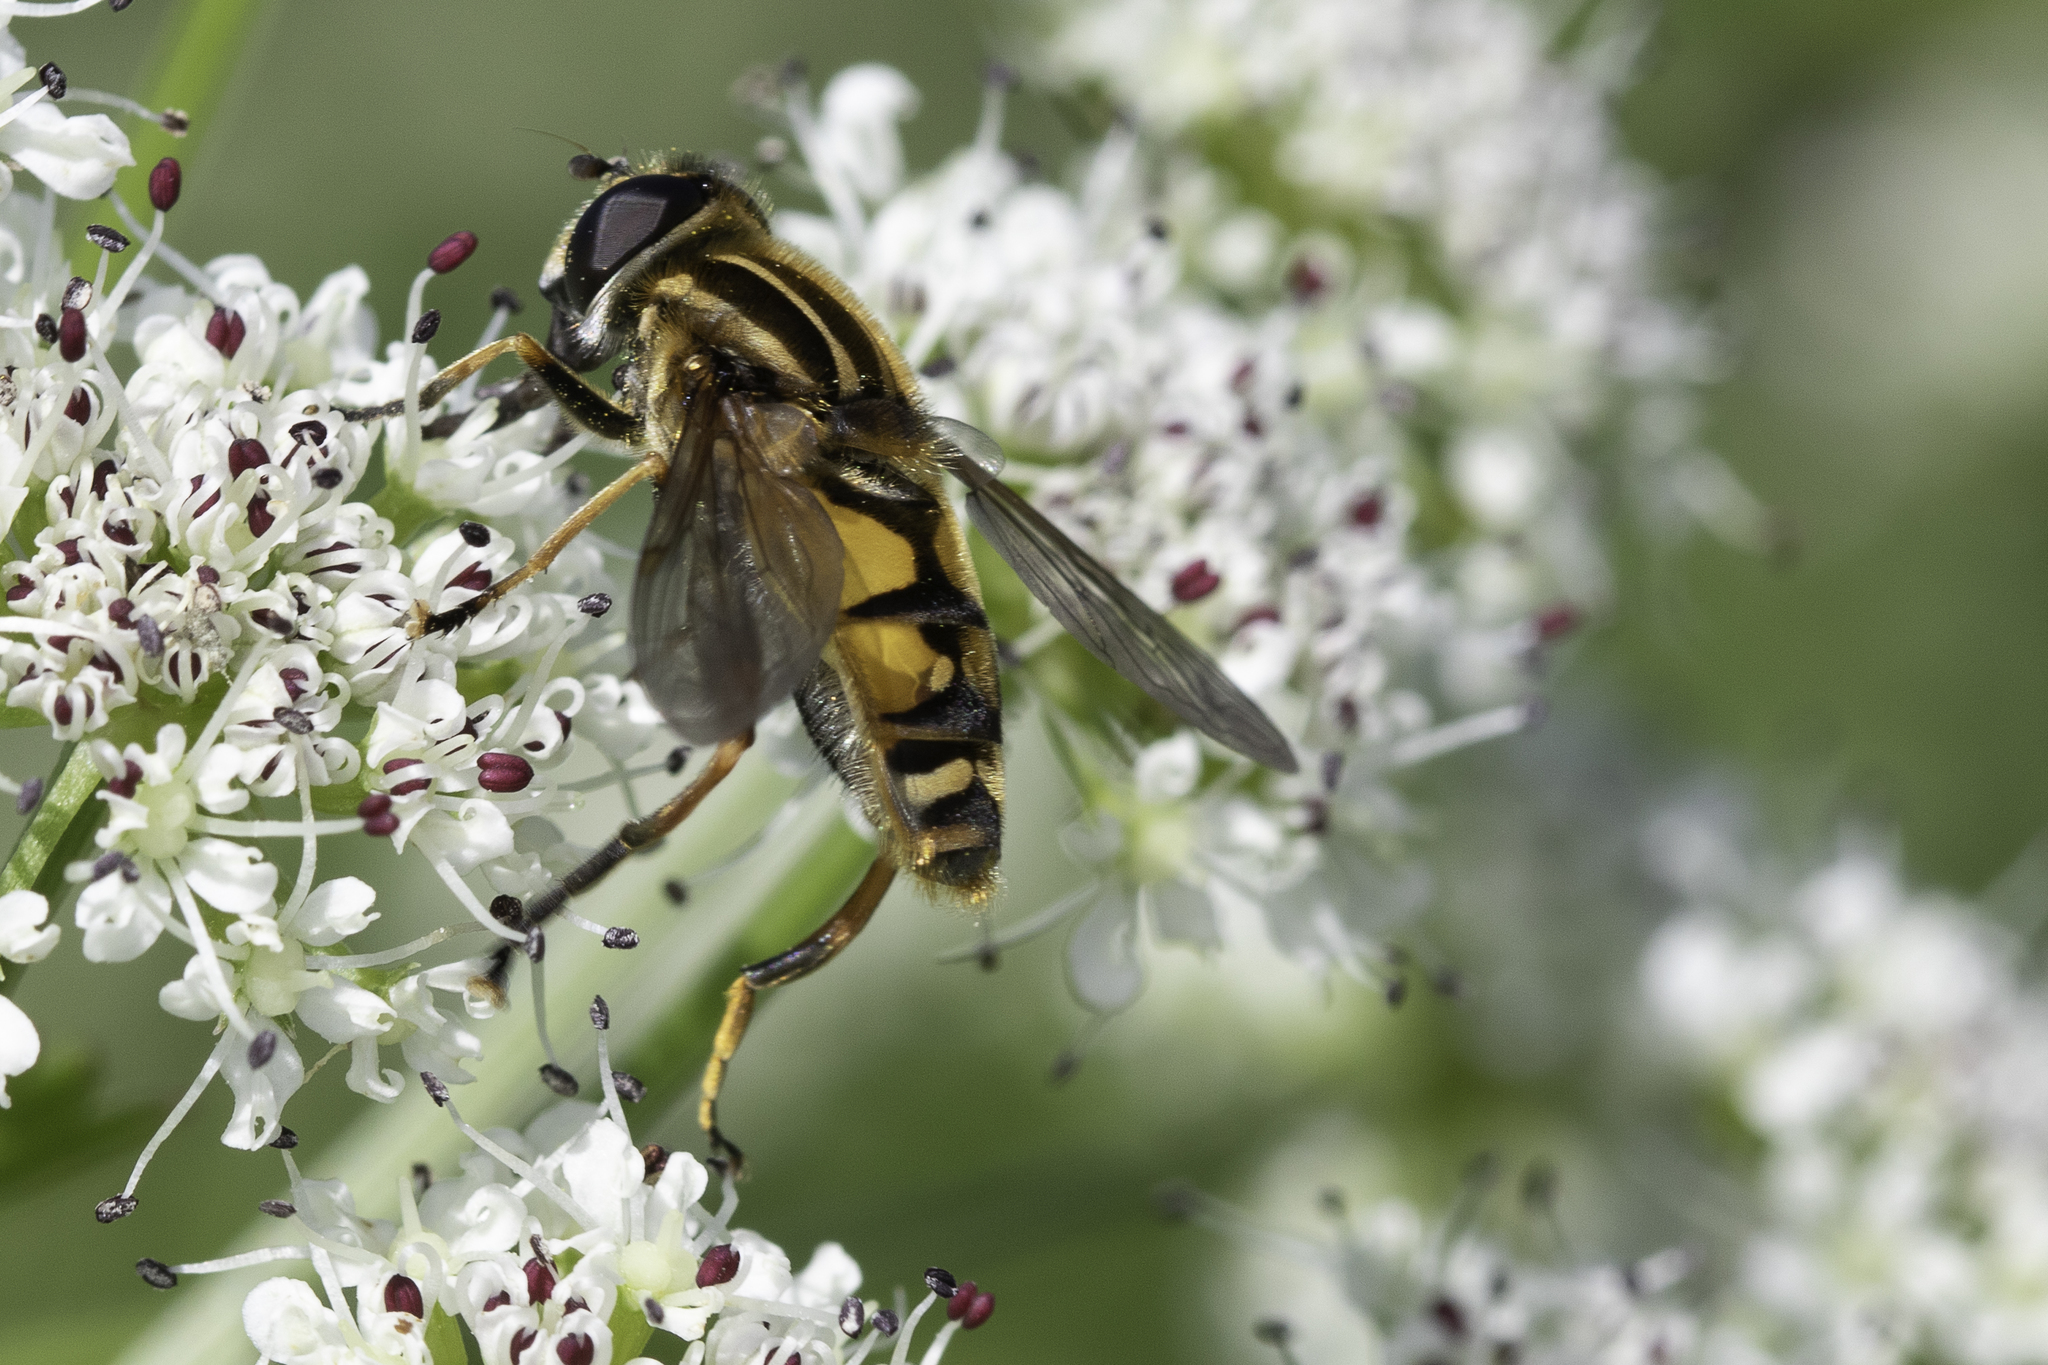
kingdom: Animalia
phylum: Arthropoda
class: Insecta
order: Diptera
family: Syrphidae
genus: Helophilus
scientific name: Helophilus pendulus
